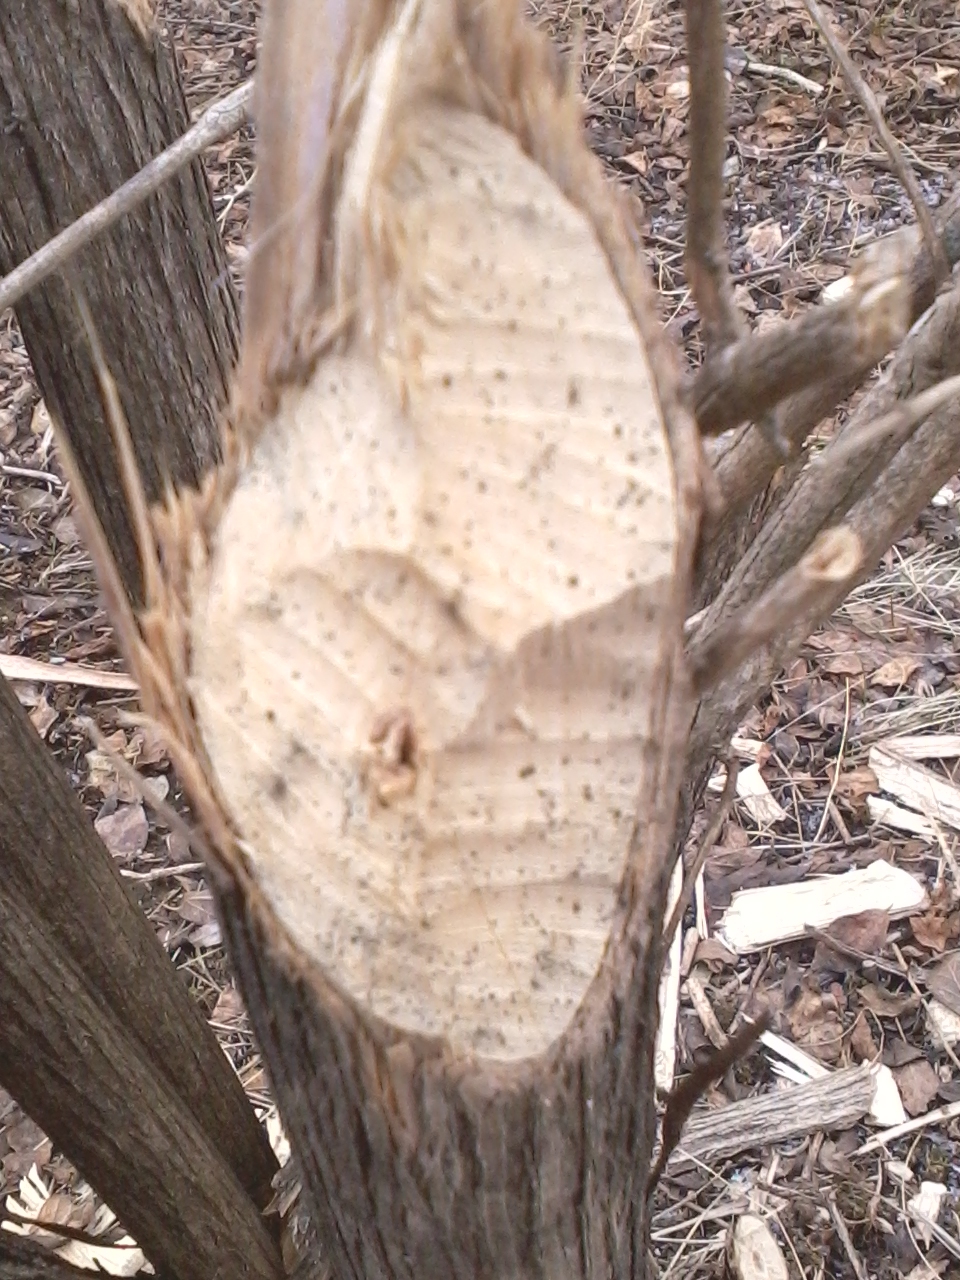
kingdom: Animalia
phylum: Chordata
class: Mammalia
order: Rodentia
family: Castoridae
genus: Castor
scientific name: Castor canadensis
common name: American beaver
